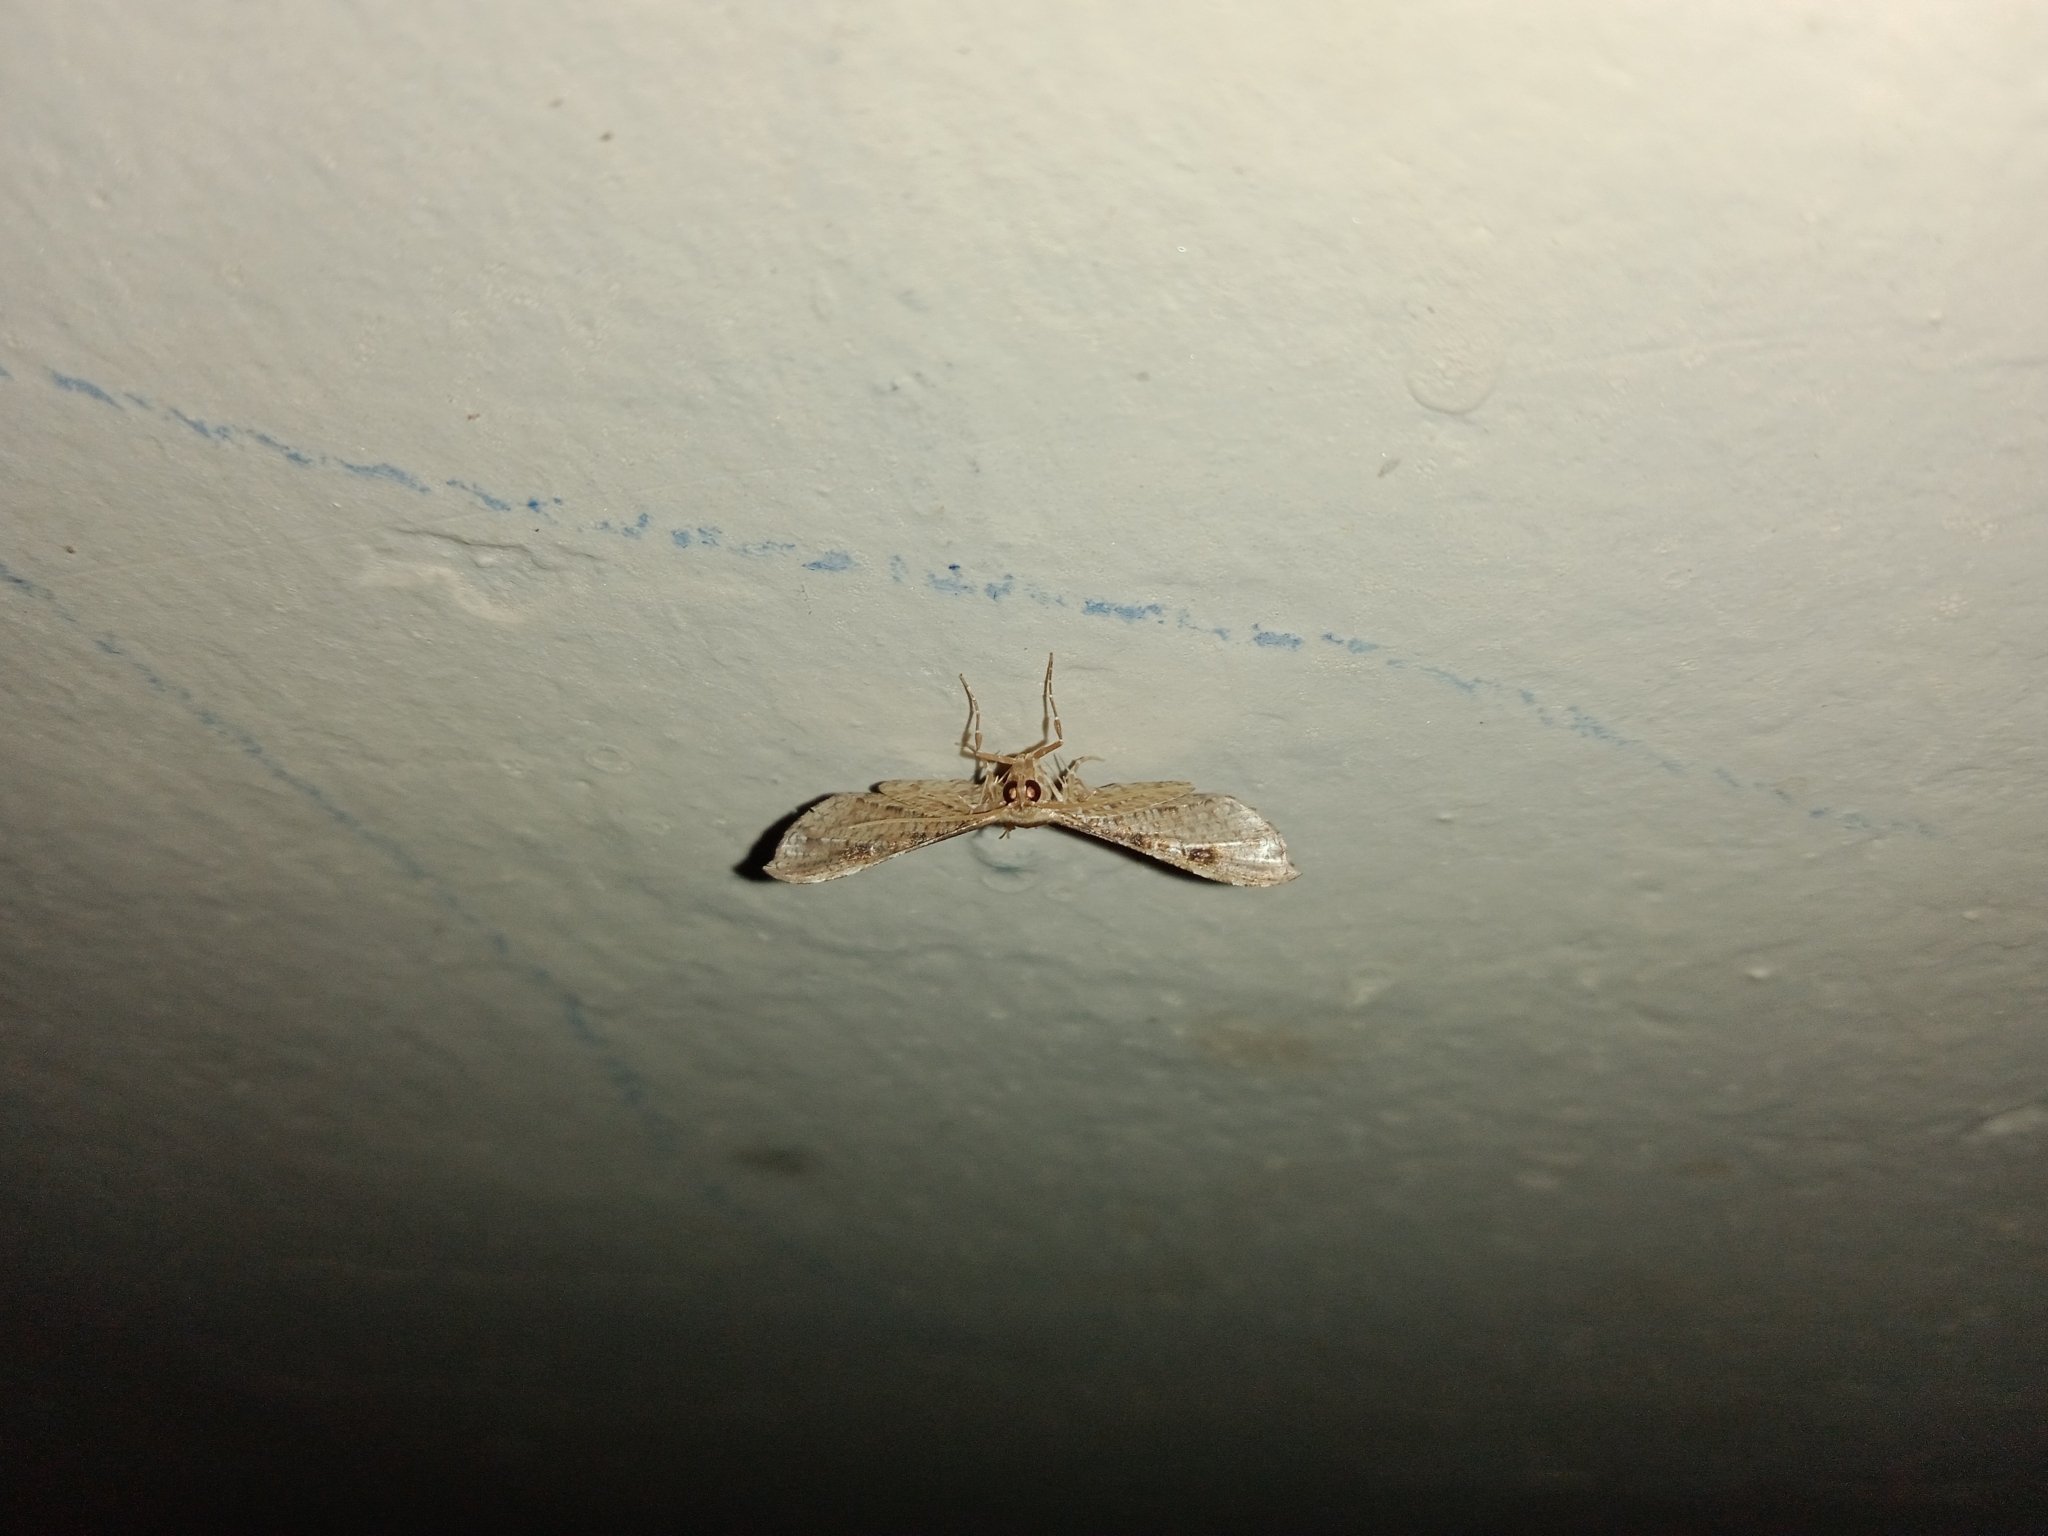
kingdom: Animalia
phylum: Arthropoda
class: Insecta
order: Lepidoptera
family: Thyrididae
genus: Pharambara
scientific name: Pharambara splendida
